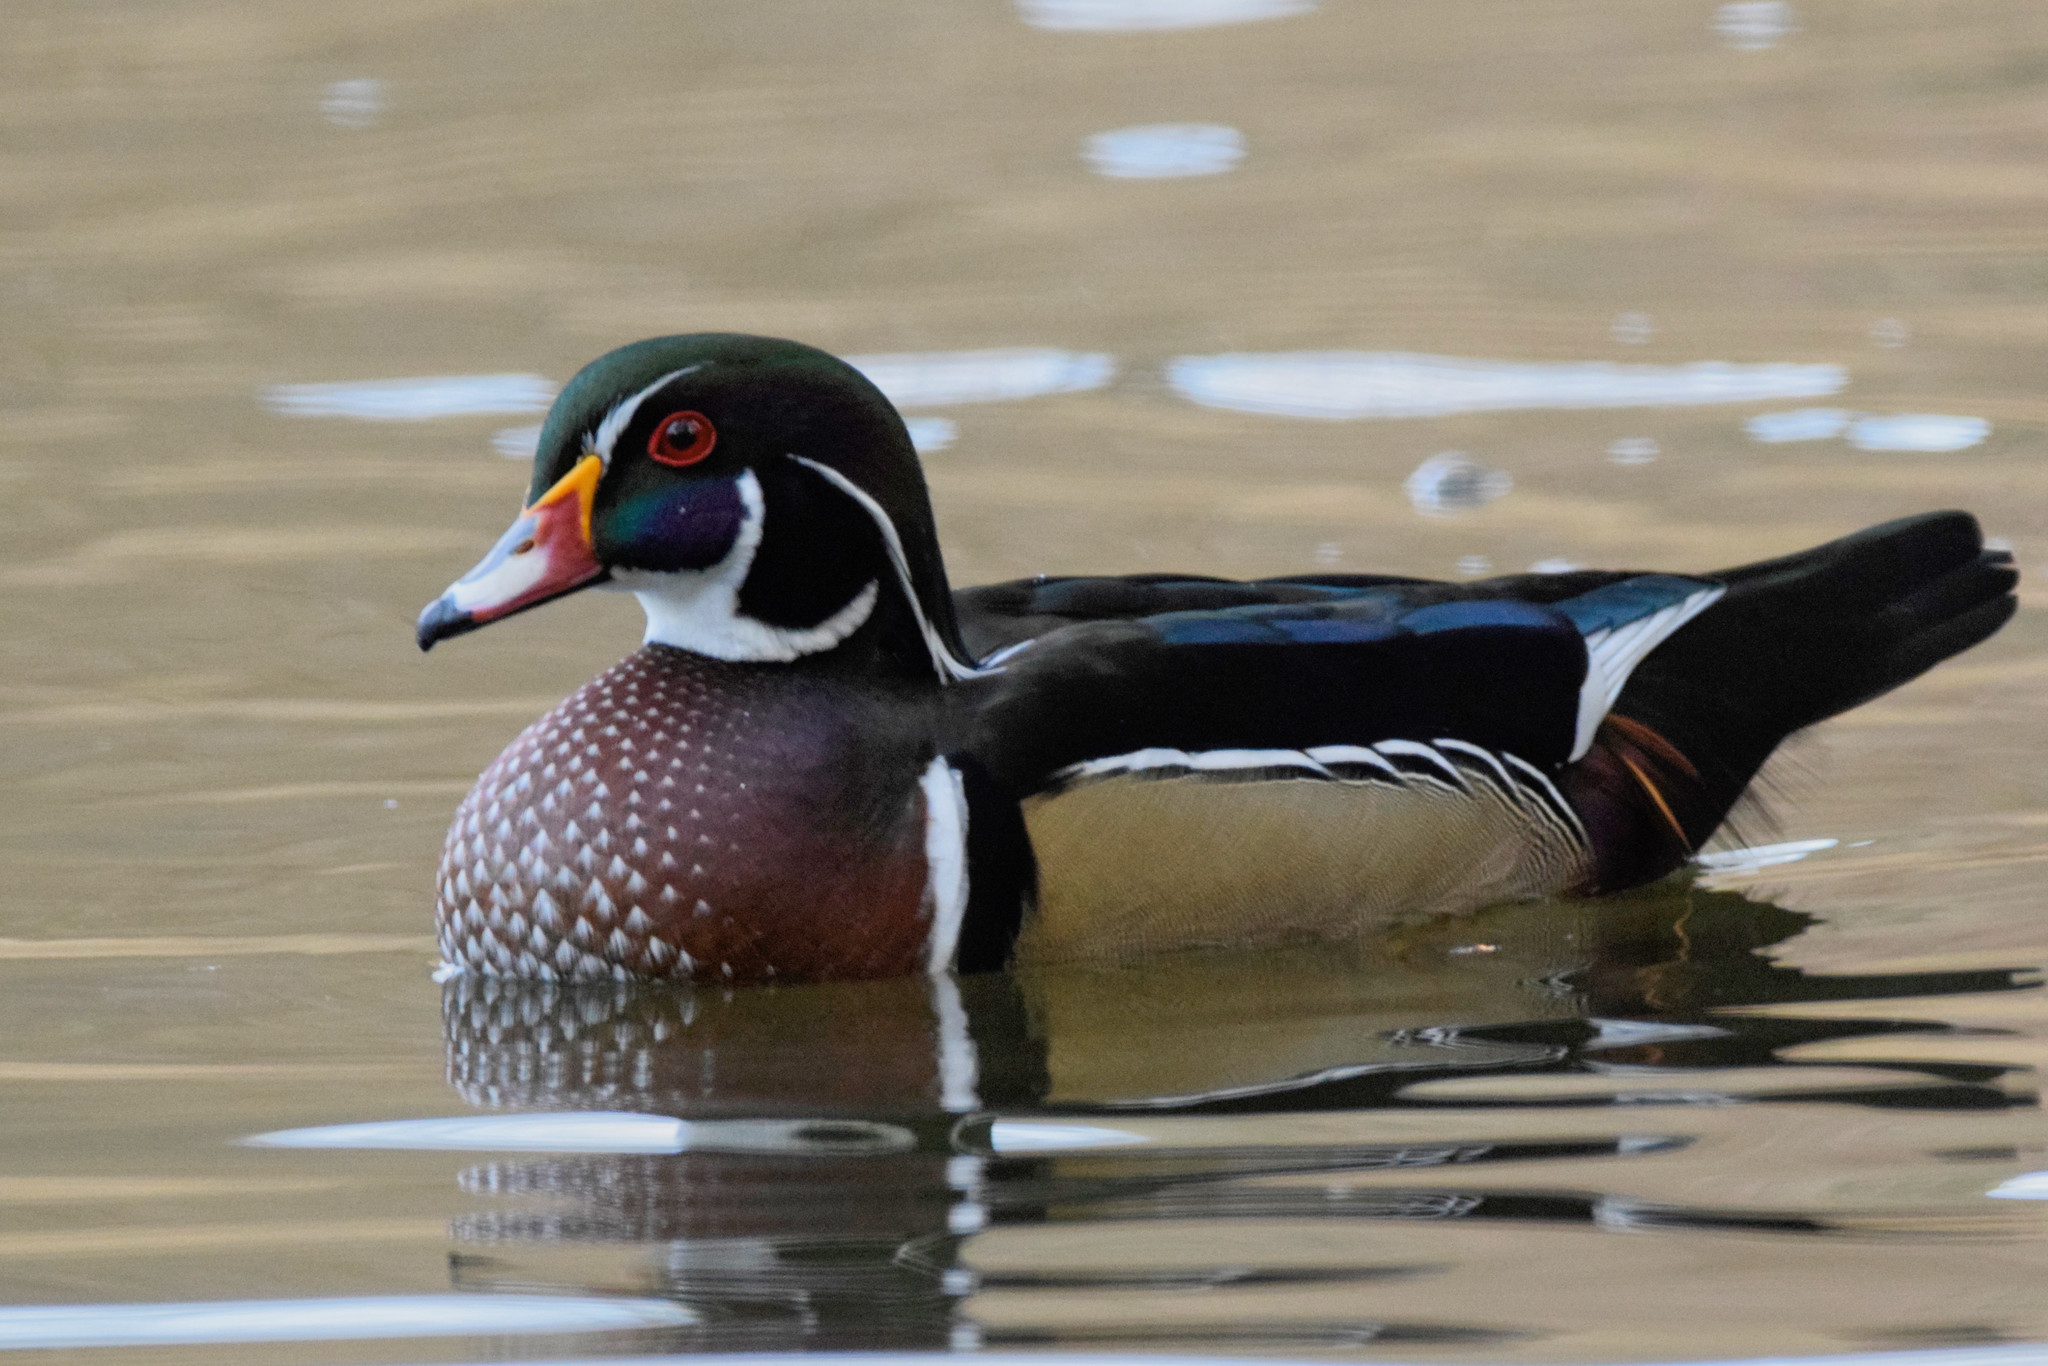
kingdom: Animalia
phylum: Chordata
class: Aves
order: Anseriformes
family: Anatidae
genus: Aix
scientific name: Aix sponsa
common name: Wood duck
